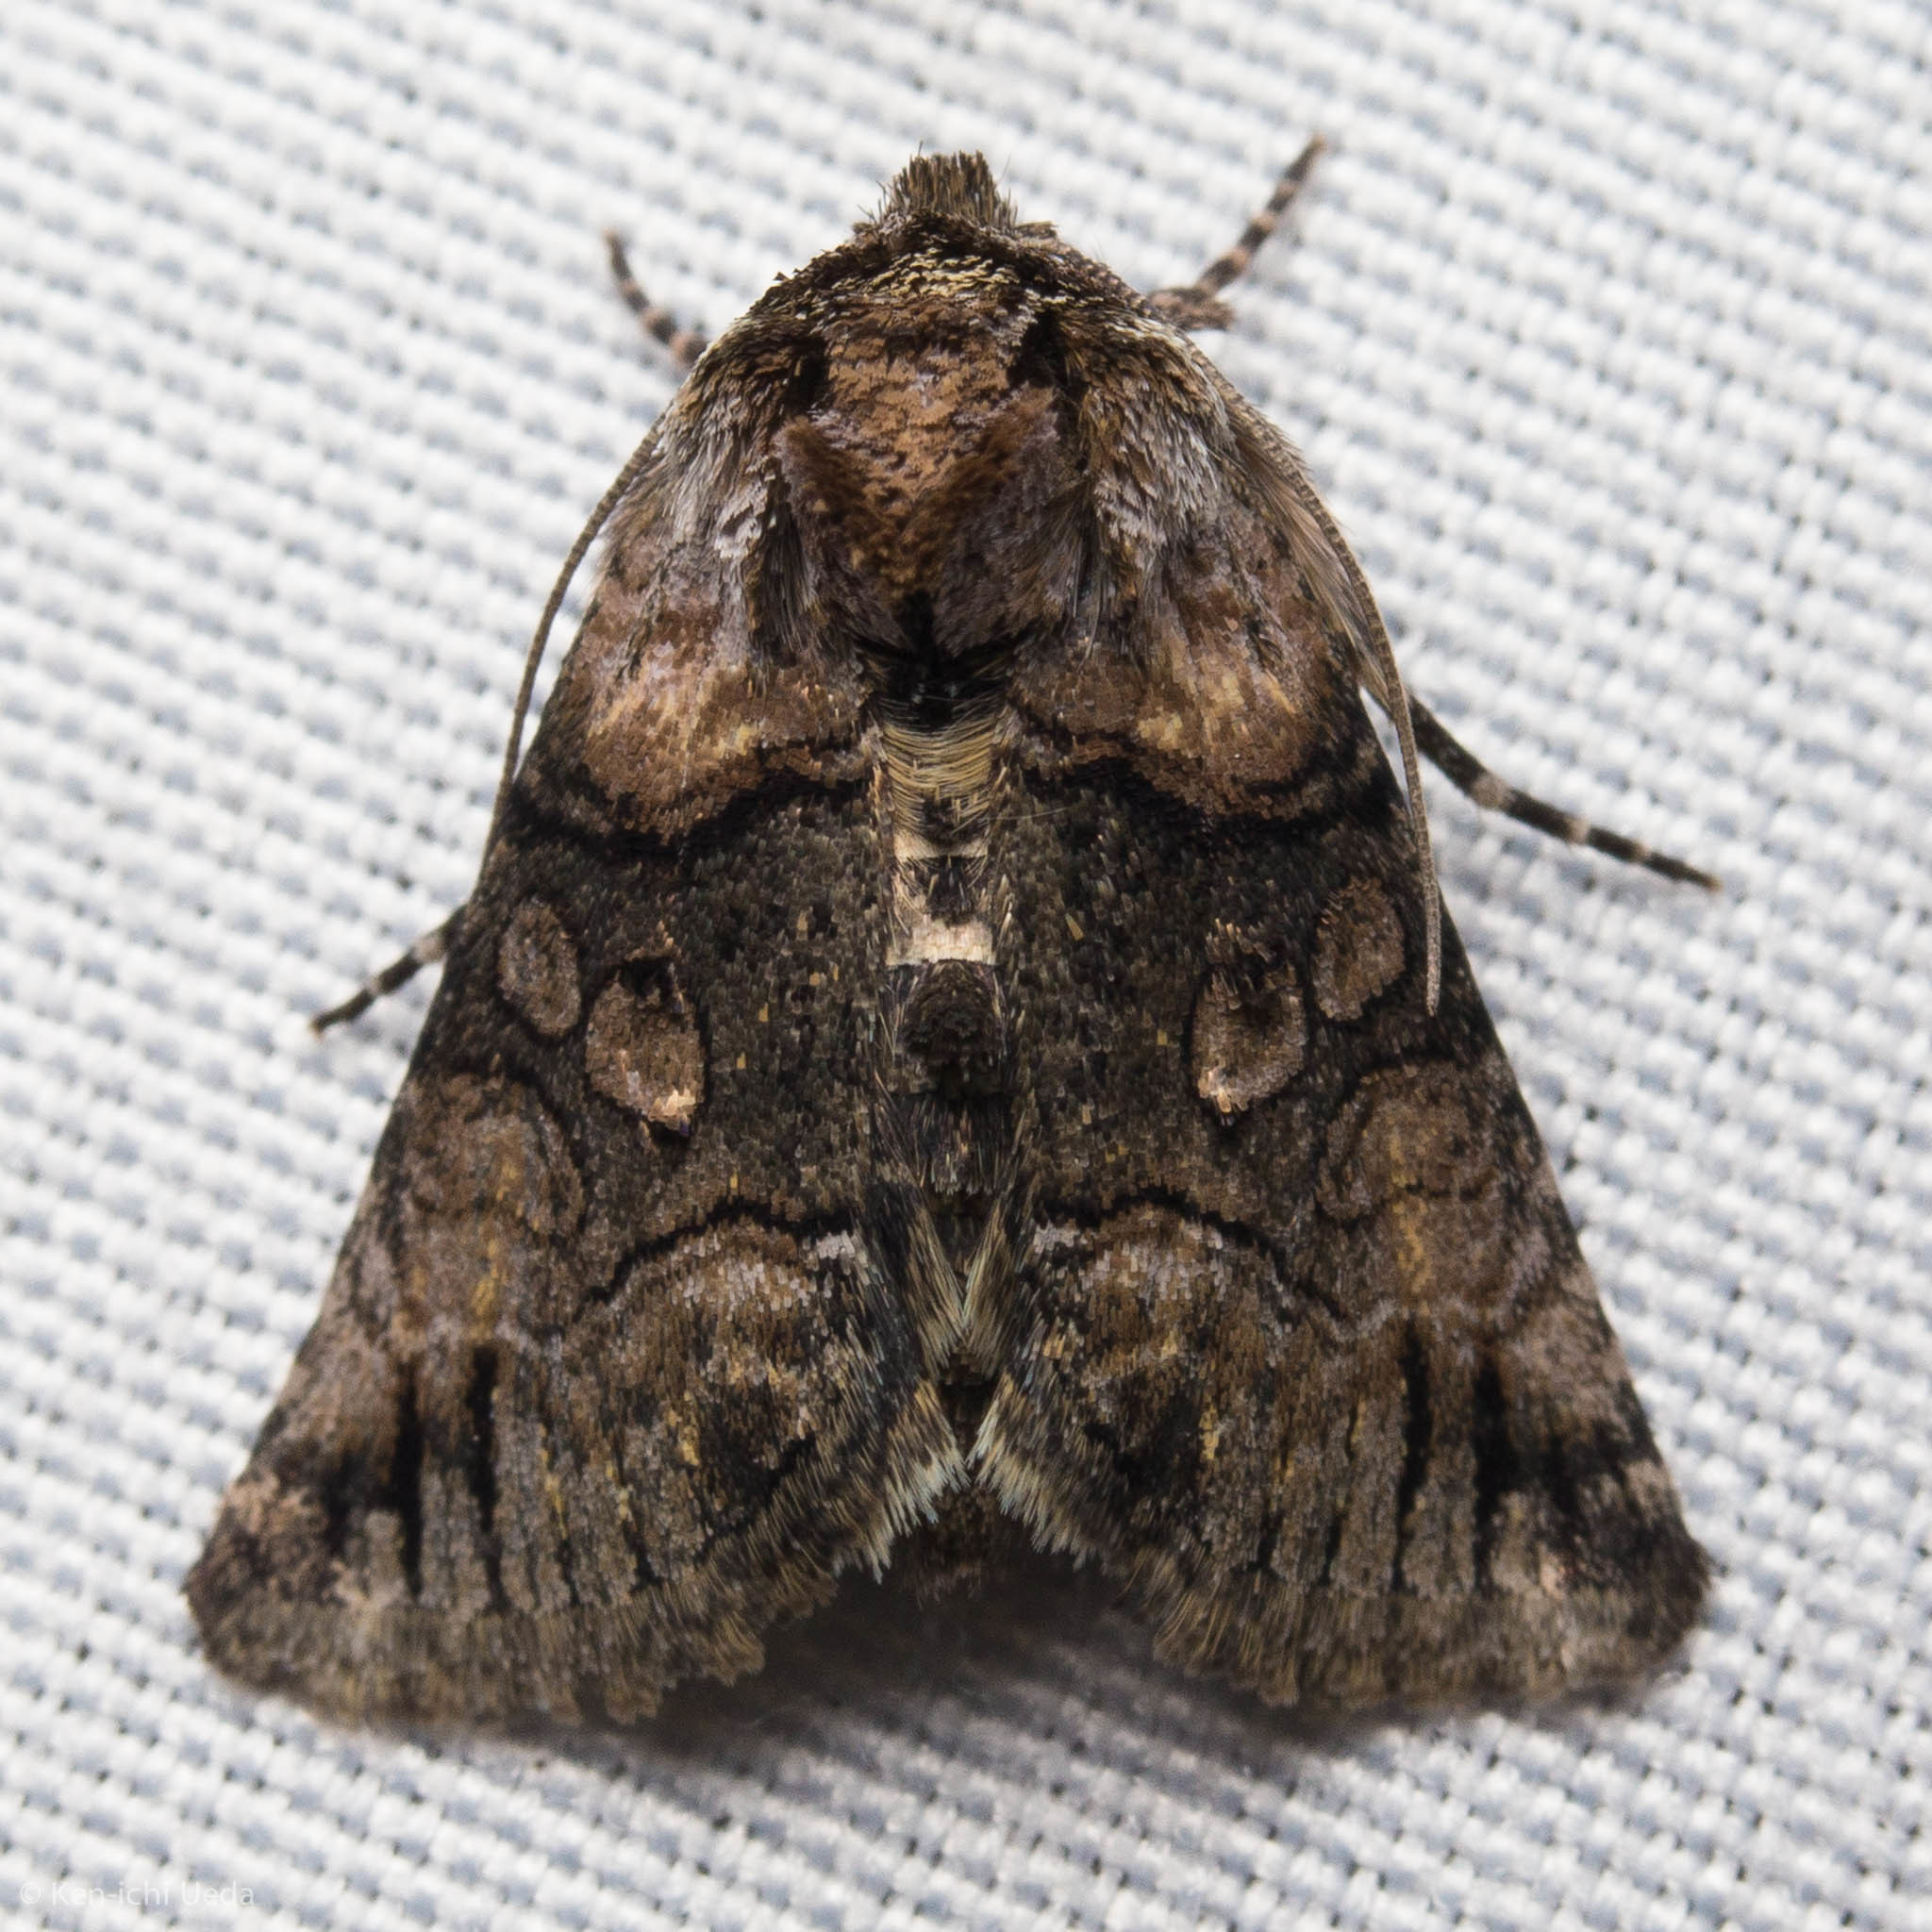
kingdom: Animalia
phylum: Arthropoda
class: Insecta
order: Lepidoptera
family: Noctuidae
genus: Abrostola
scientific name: Abrostola microvalis
